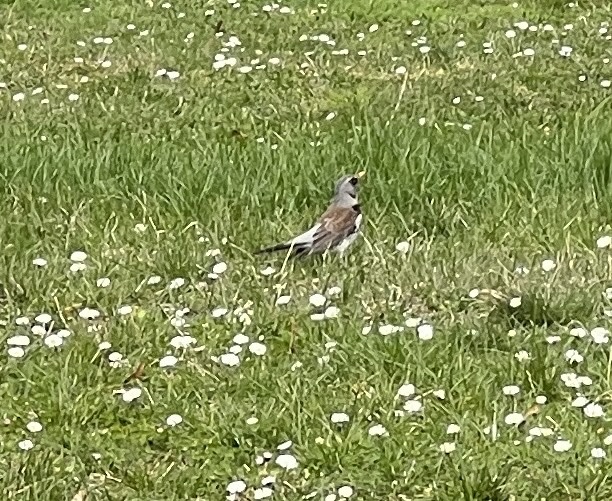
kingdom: Animalia
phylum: Chordata
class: Aves
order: Passeriformes
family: Turdidae
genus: Turdus
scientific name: Turdus pilaris
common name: Fieldfare
